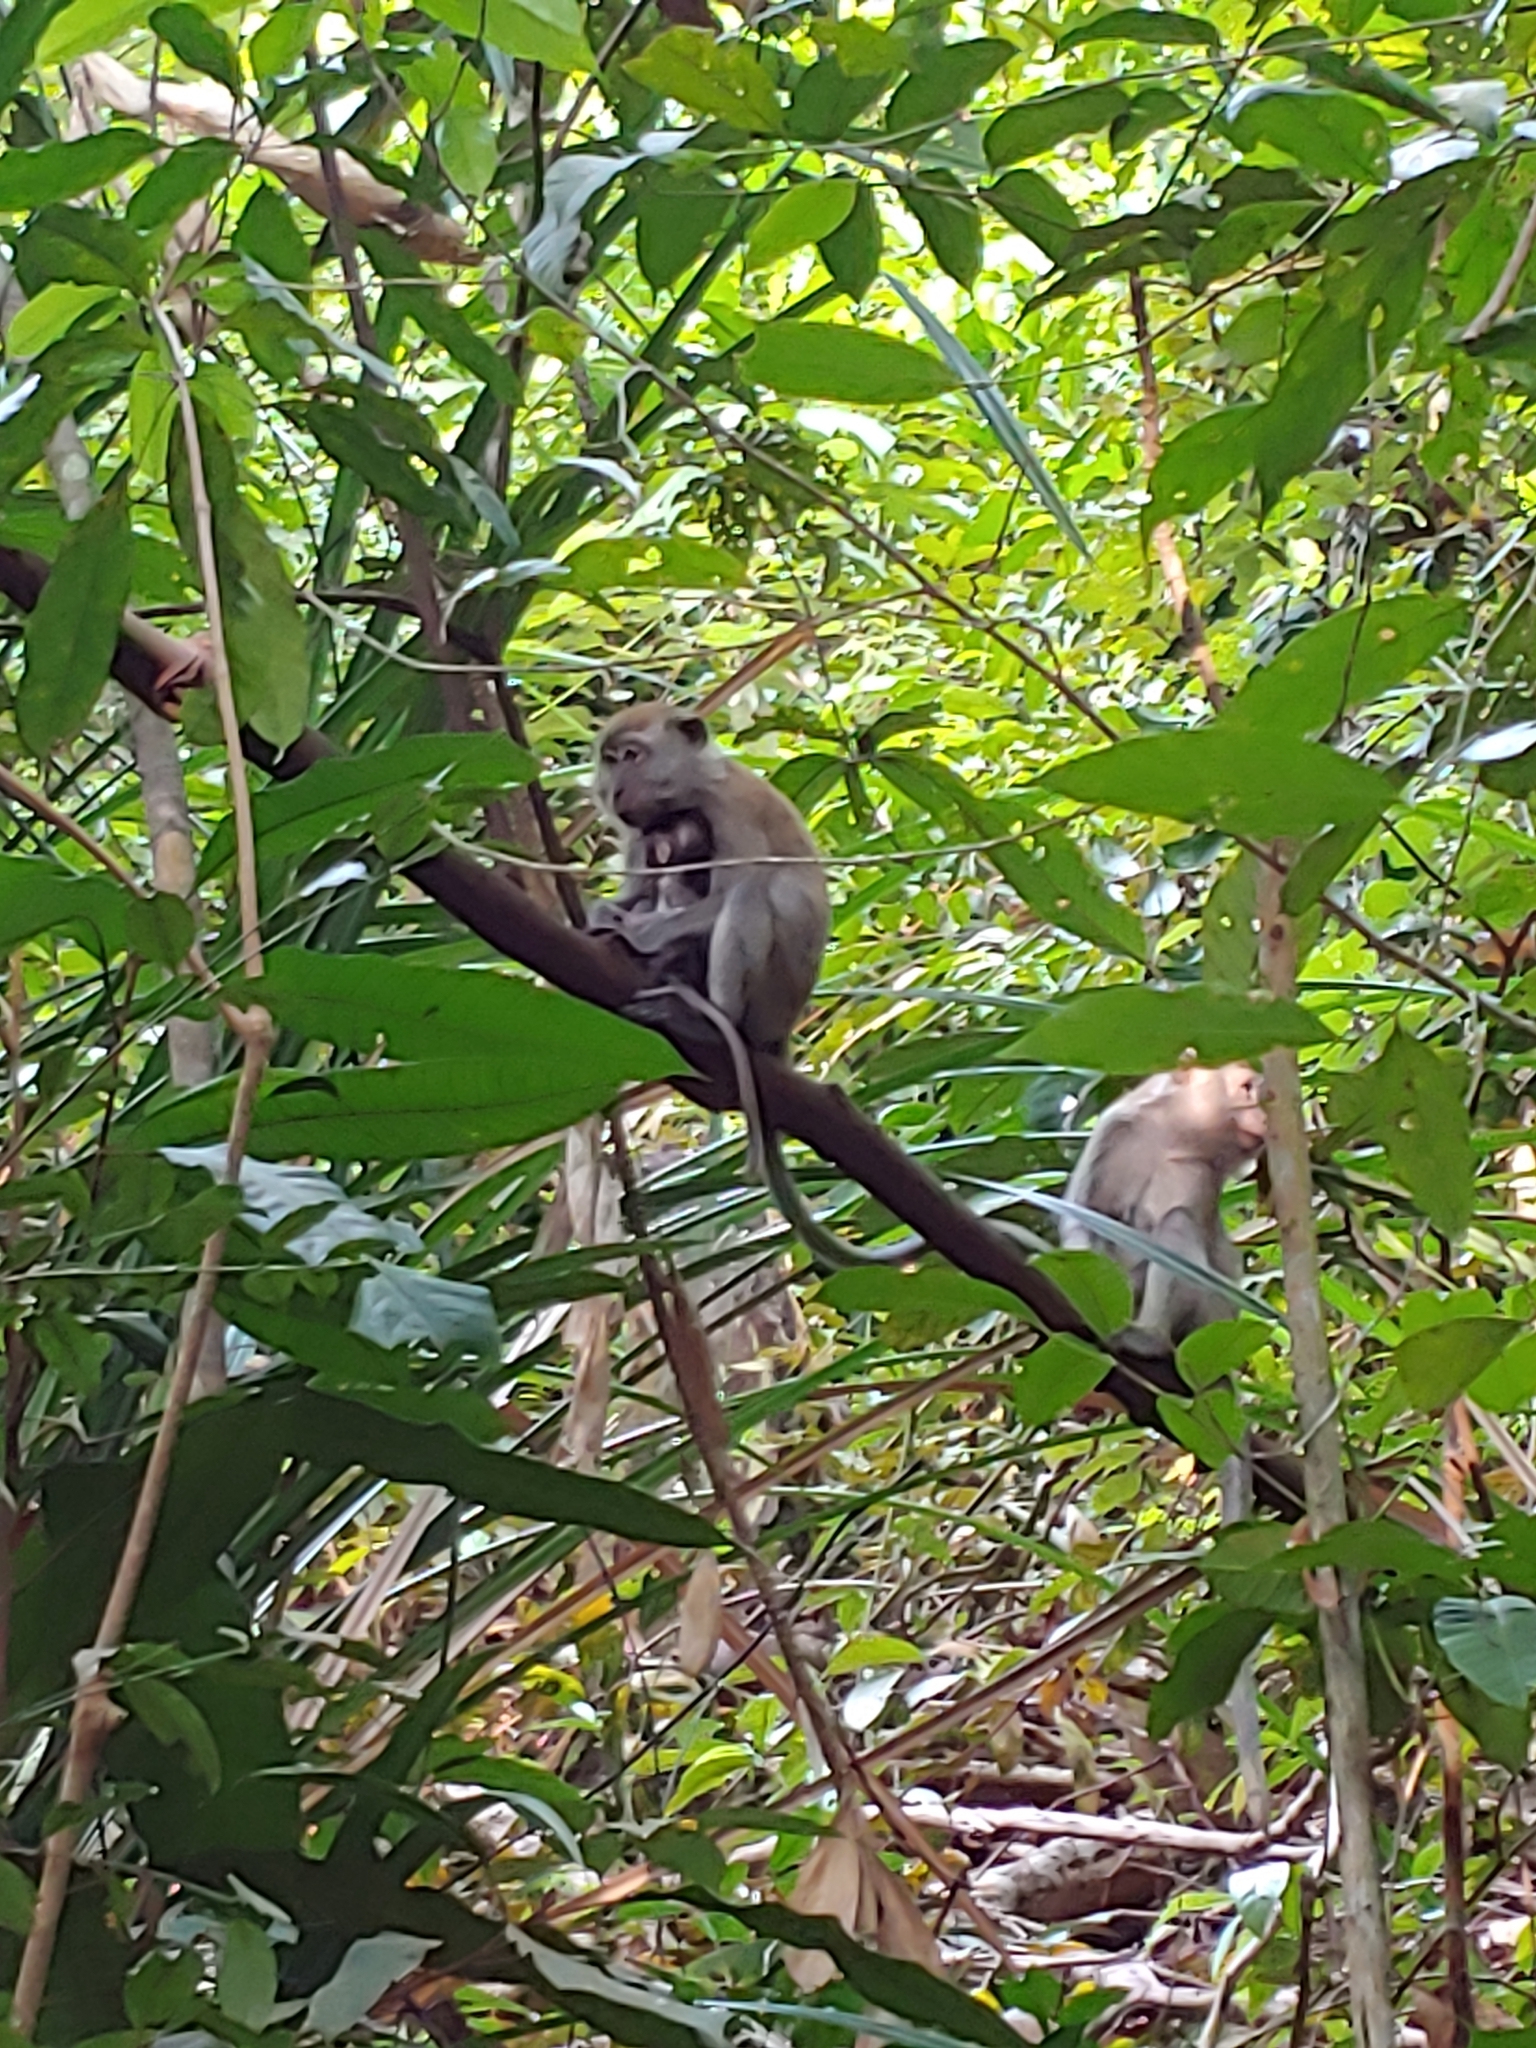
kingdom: Animalia
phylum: Chordata
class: Mammalia
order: Primates
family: Cercopithecidae
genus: Macaca
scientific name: Macaca fascicularis
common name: Crab-eating macaque
